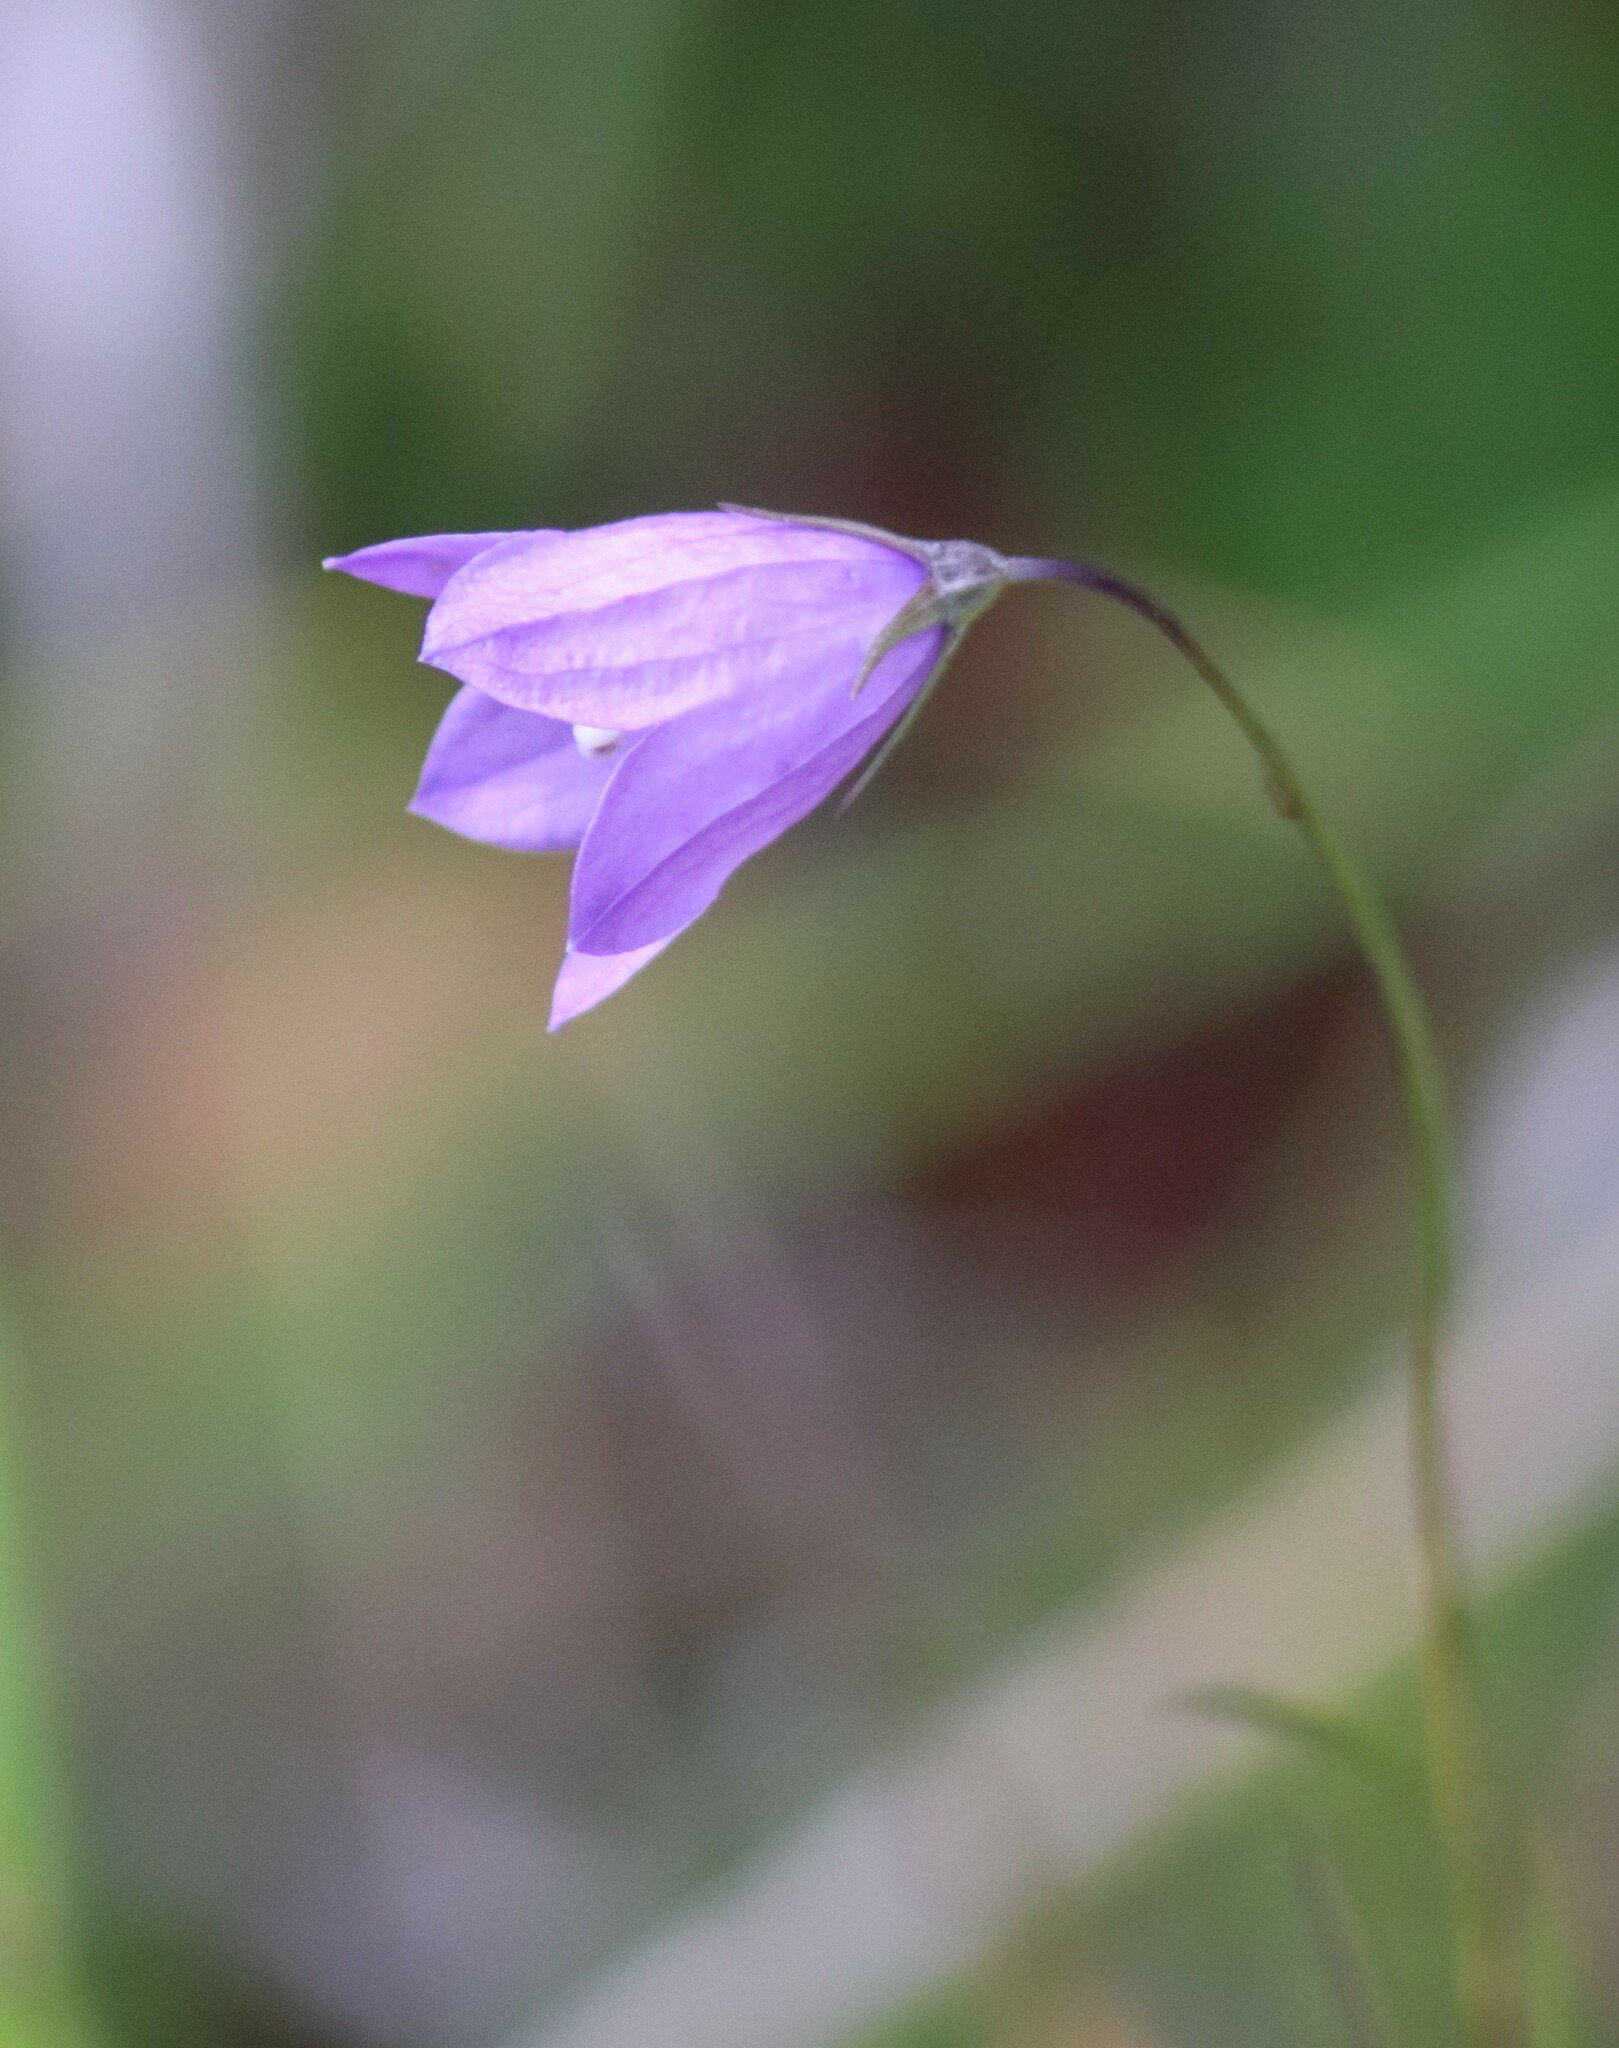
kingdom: Plantae
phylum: Tracheophyta
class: Magnoliopsida
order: Asterales
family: Campanulaceae
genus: Campanula
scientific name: Campanula petiolata
